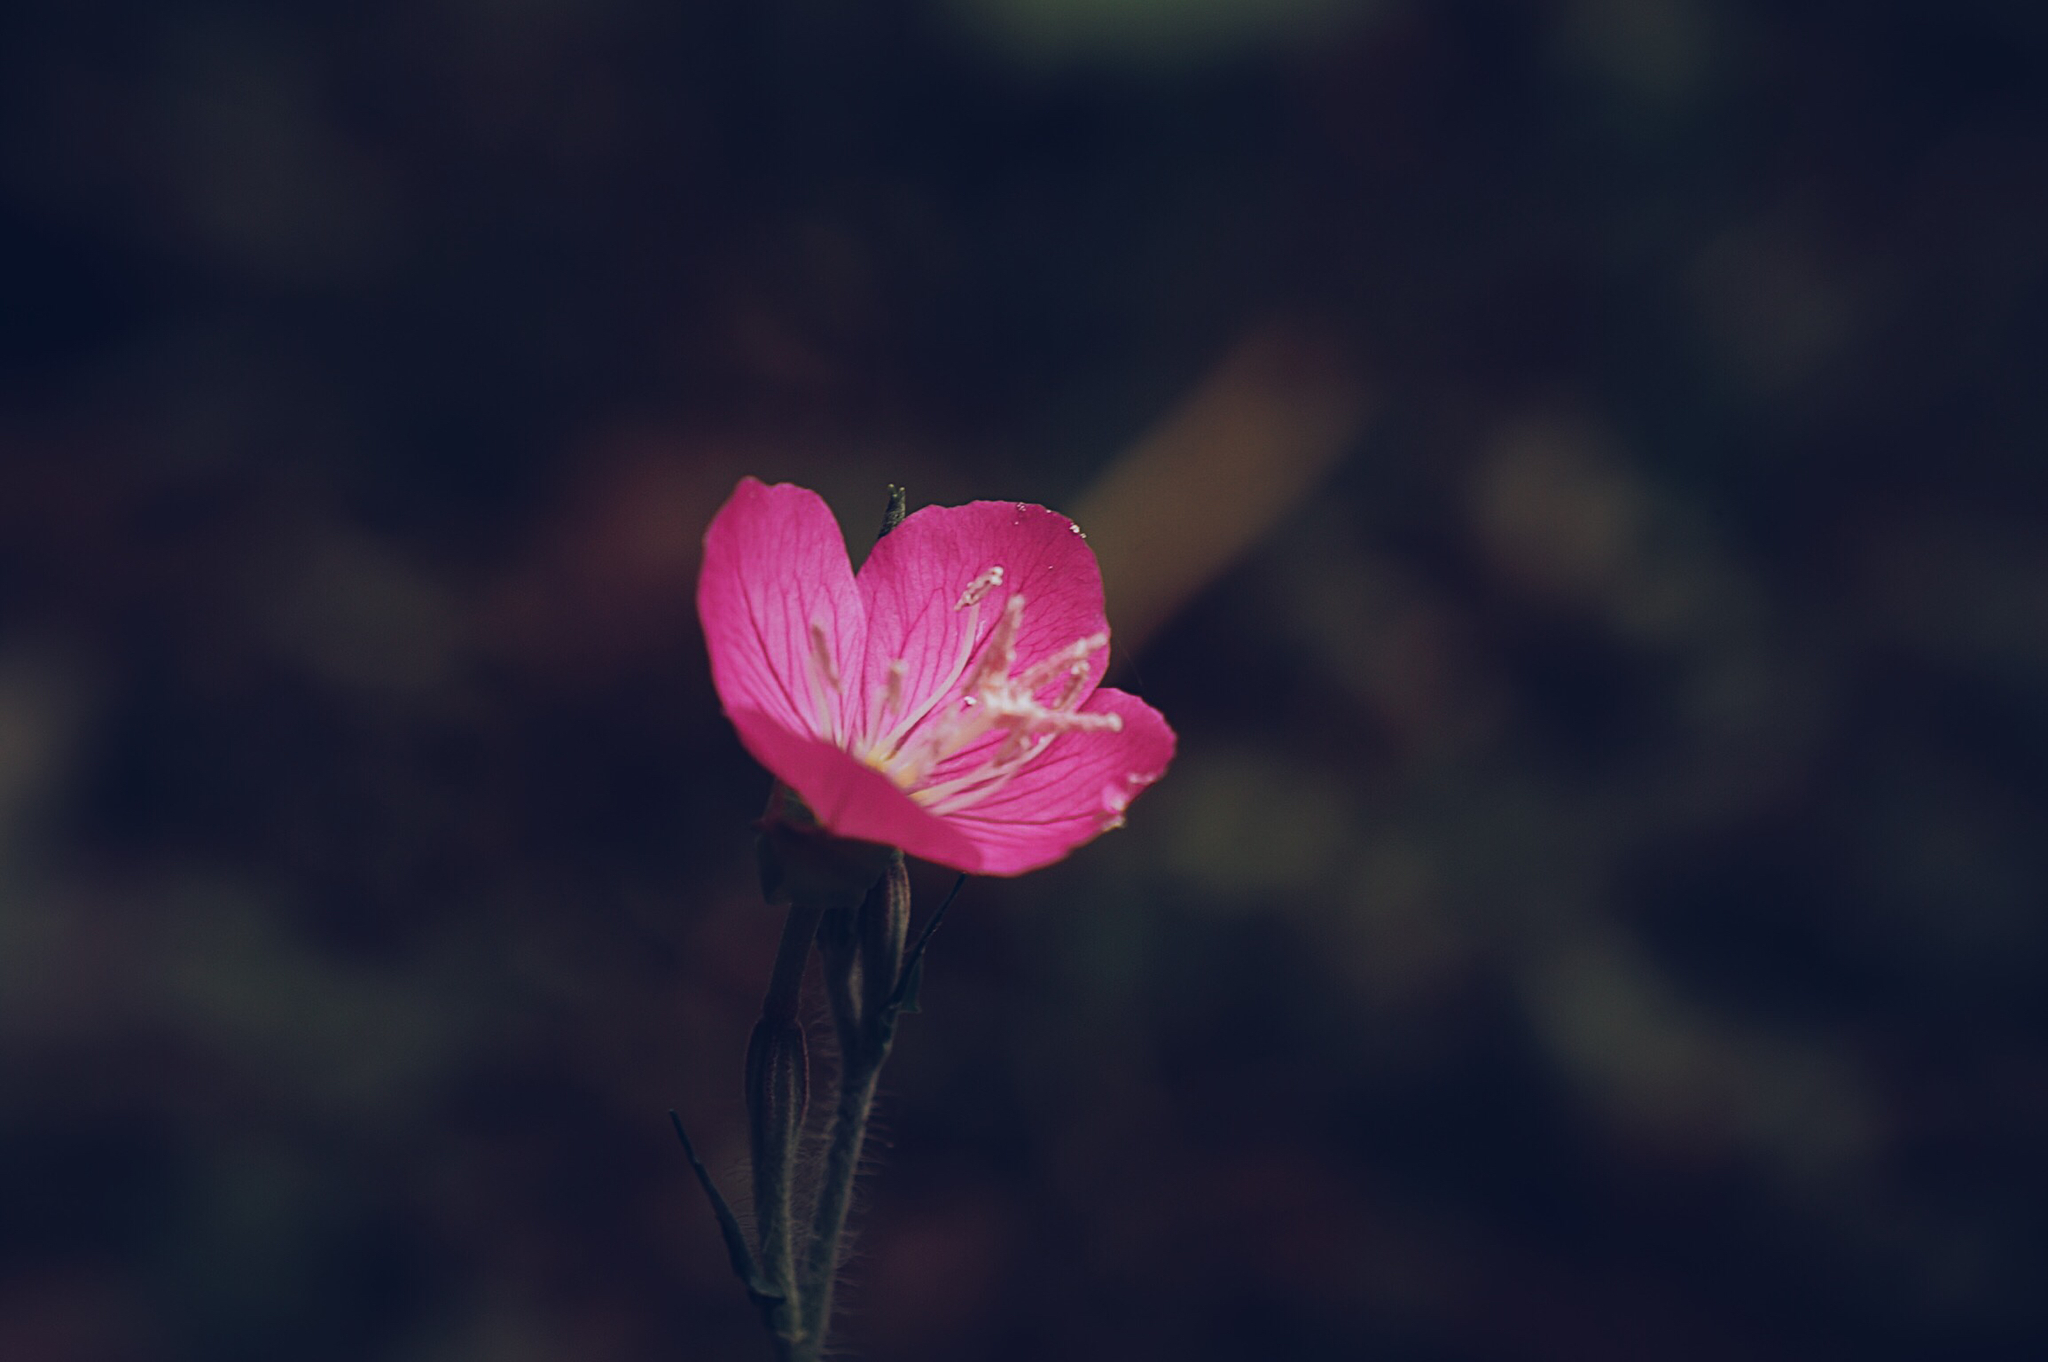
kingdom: Plantae
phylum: Tracheophyta
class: Magnoliopsida
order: Myrtales
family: Onagraceae
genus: Oenothera
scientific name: Oenothera rosea
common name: Rosy evening-primrose
